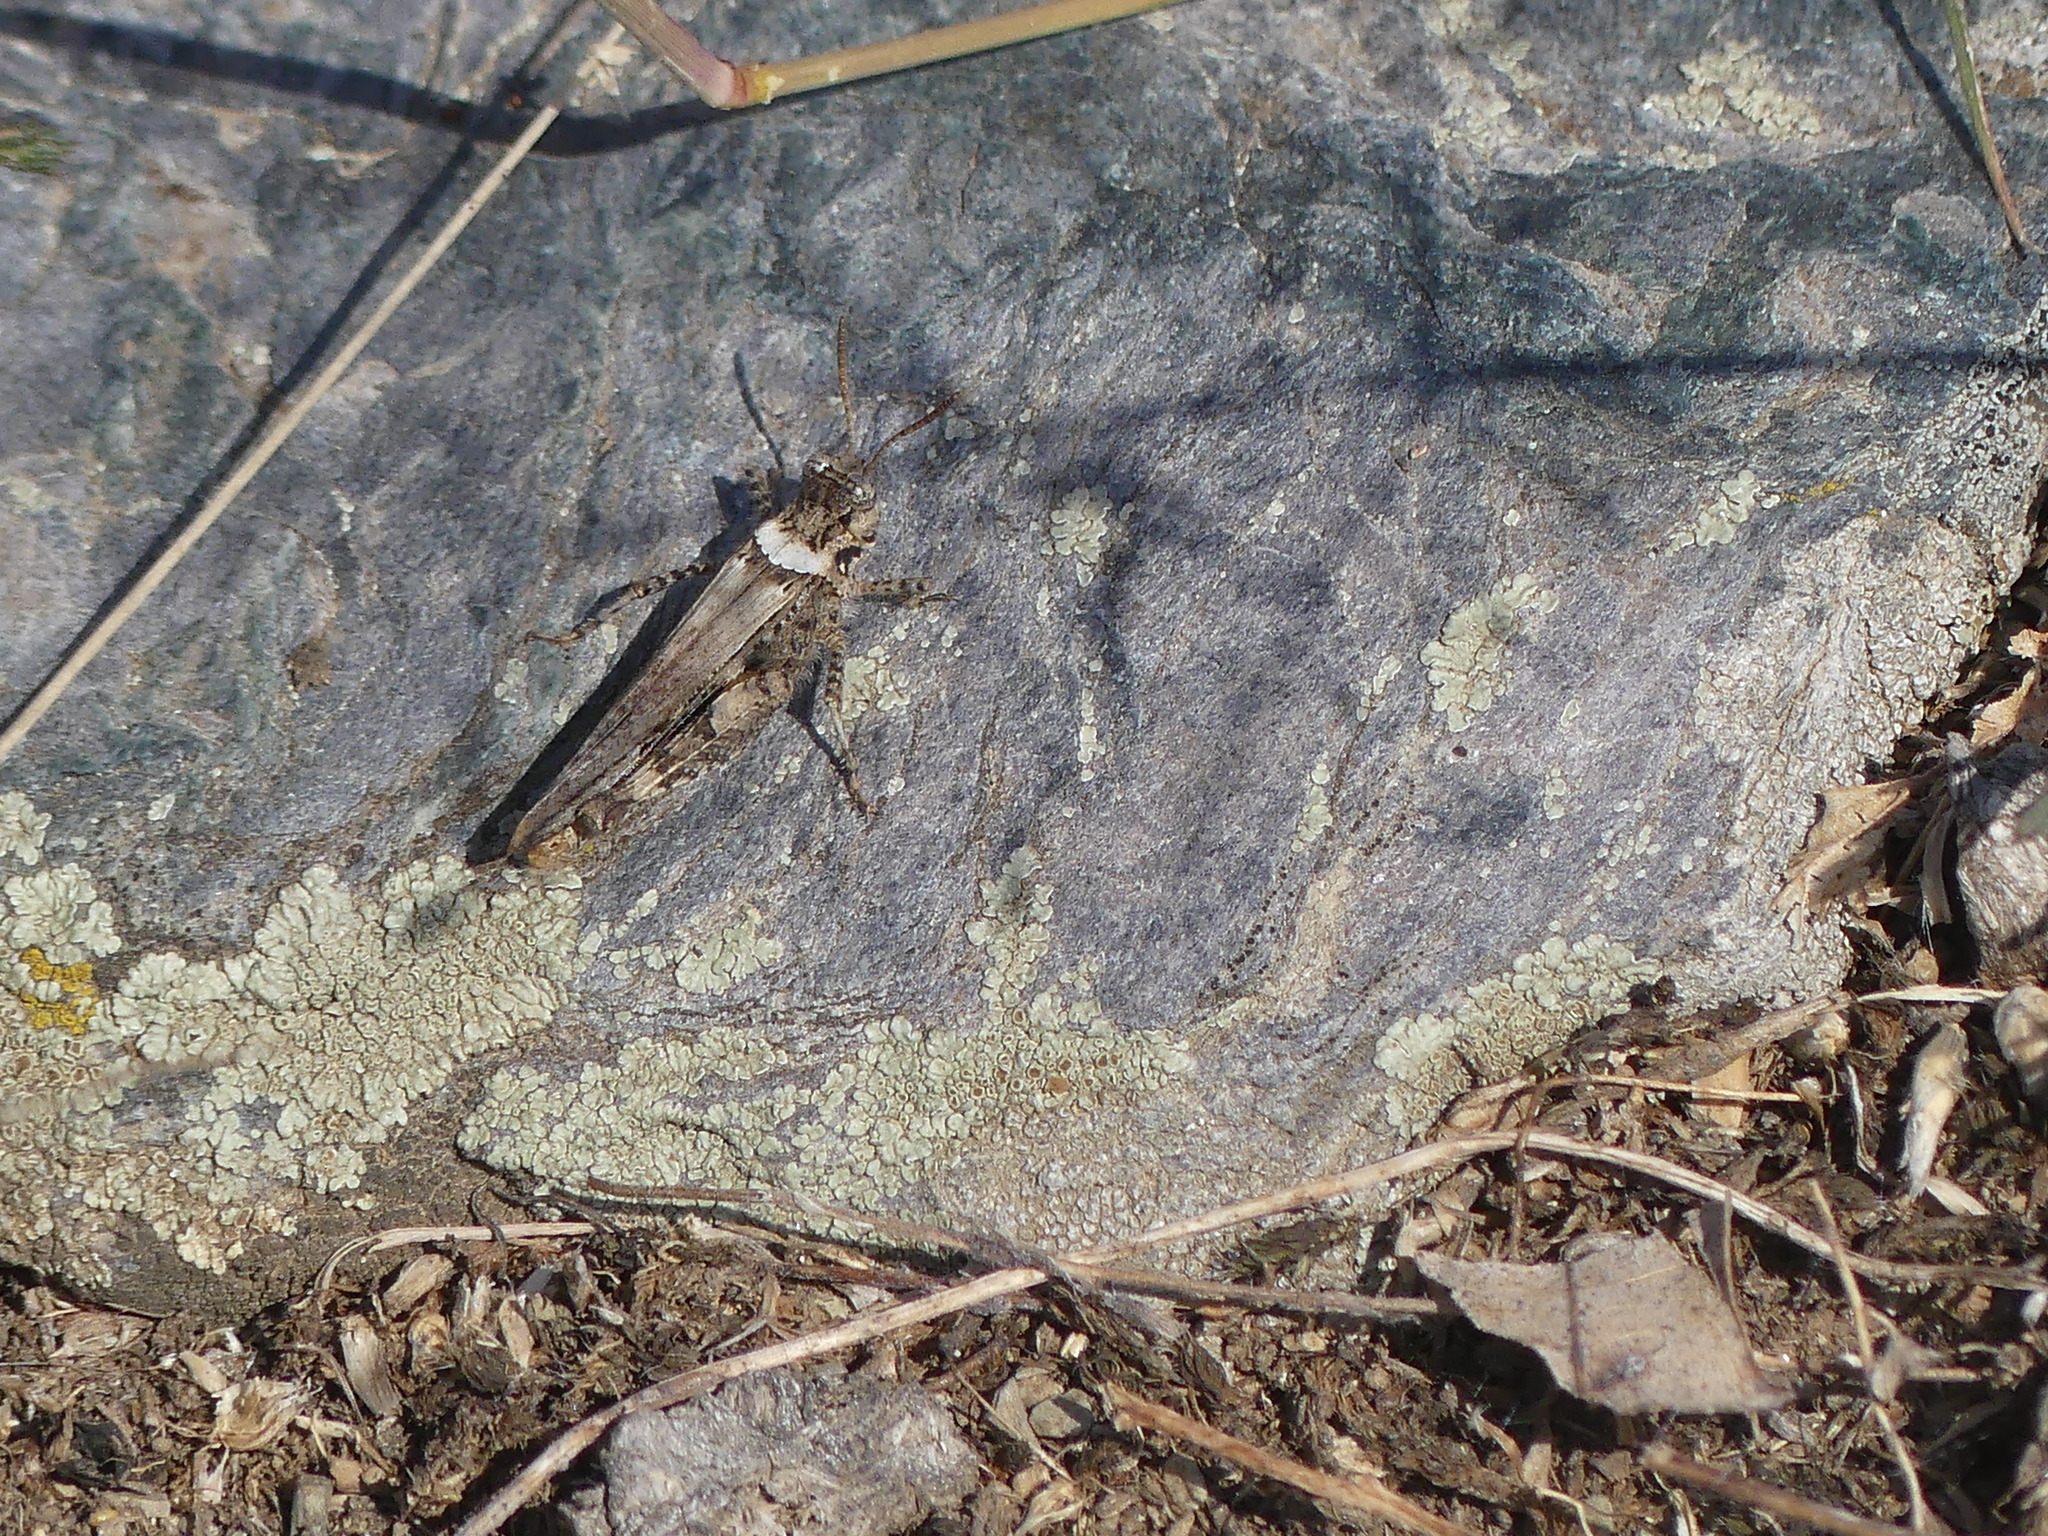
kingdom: Animalia
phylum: Arthropoda
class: Insecta
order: Orthoptera
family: Acrididae
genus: Acrotylus
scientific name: Acrotylus insubricus
